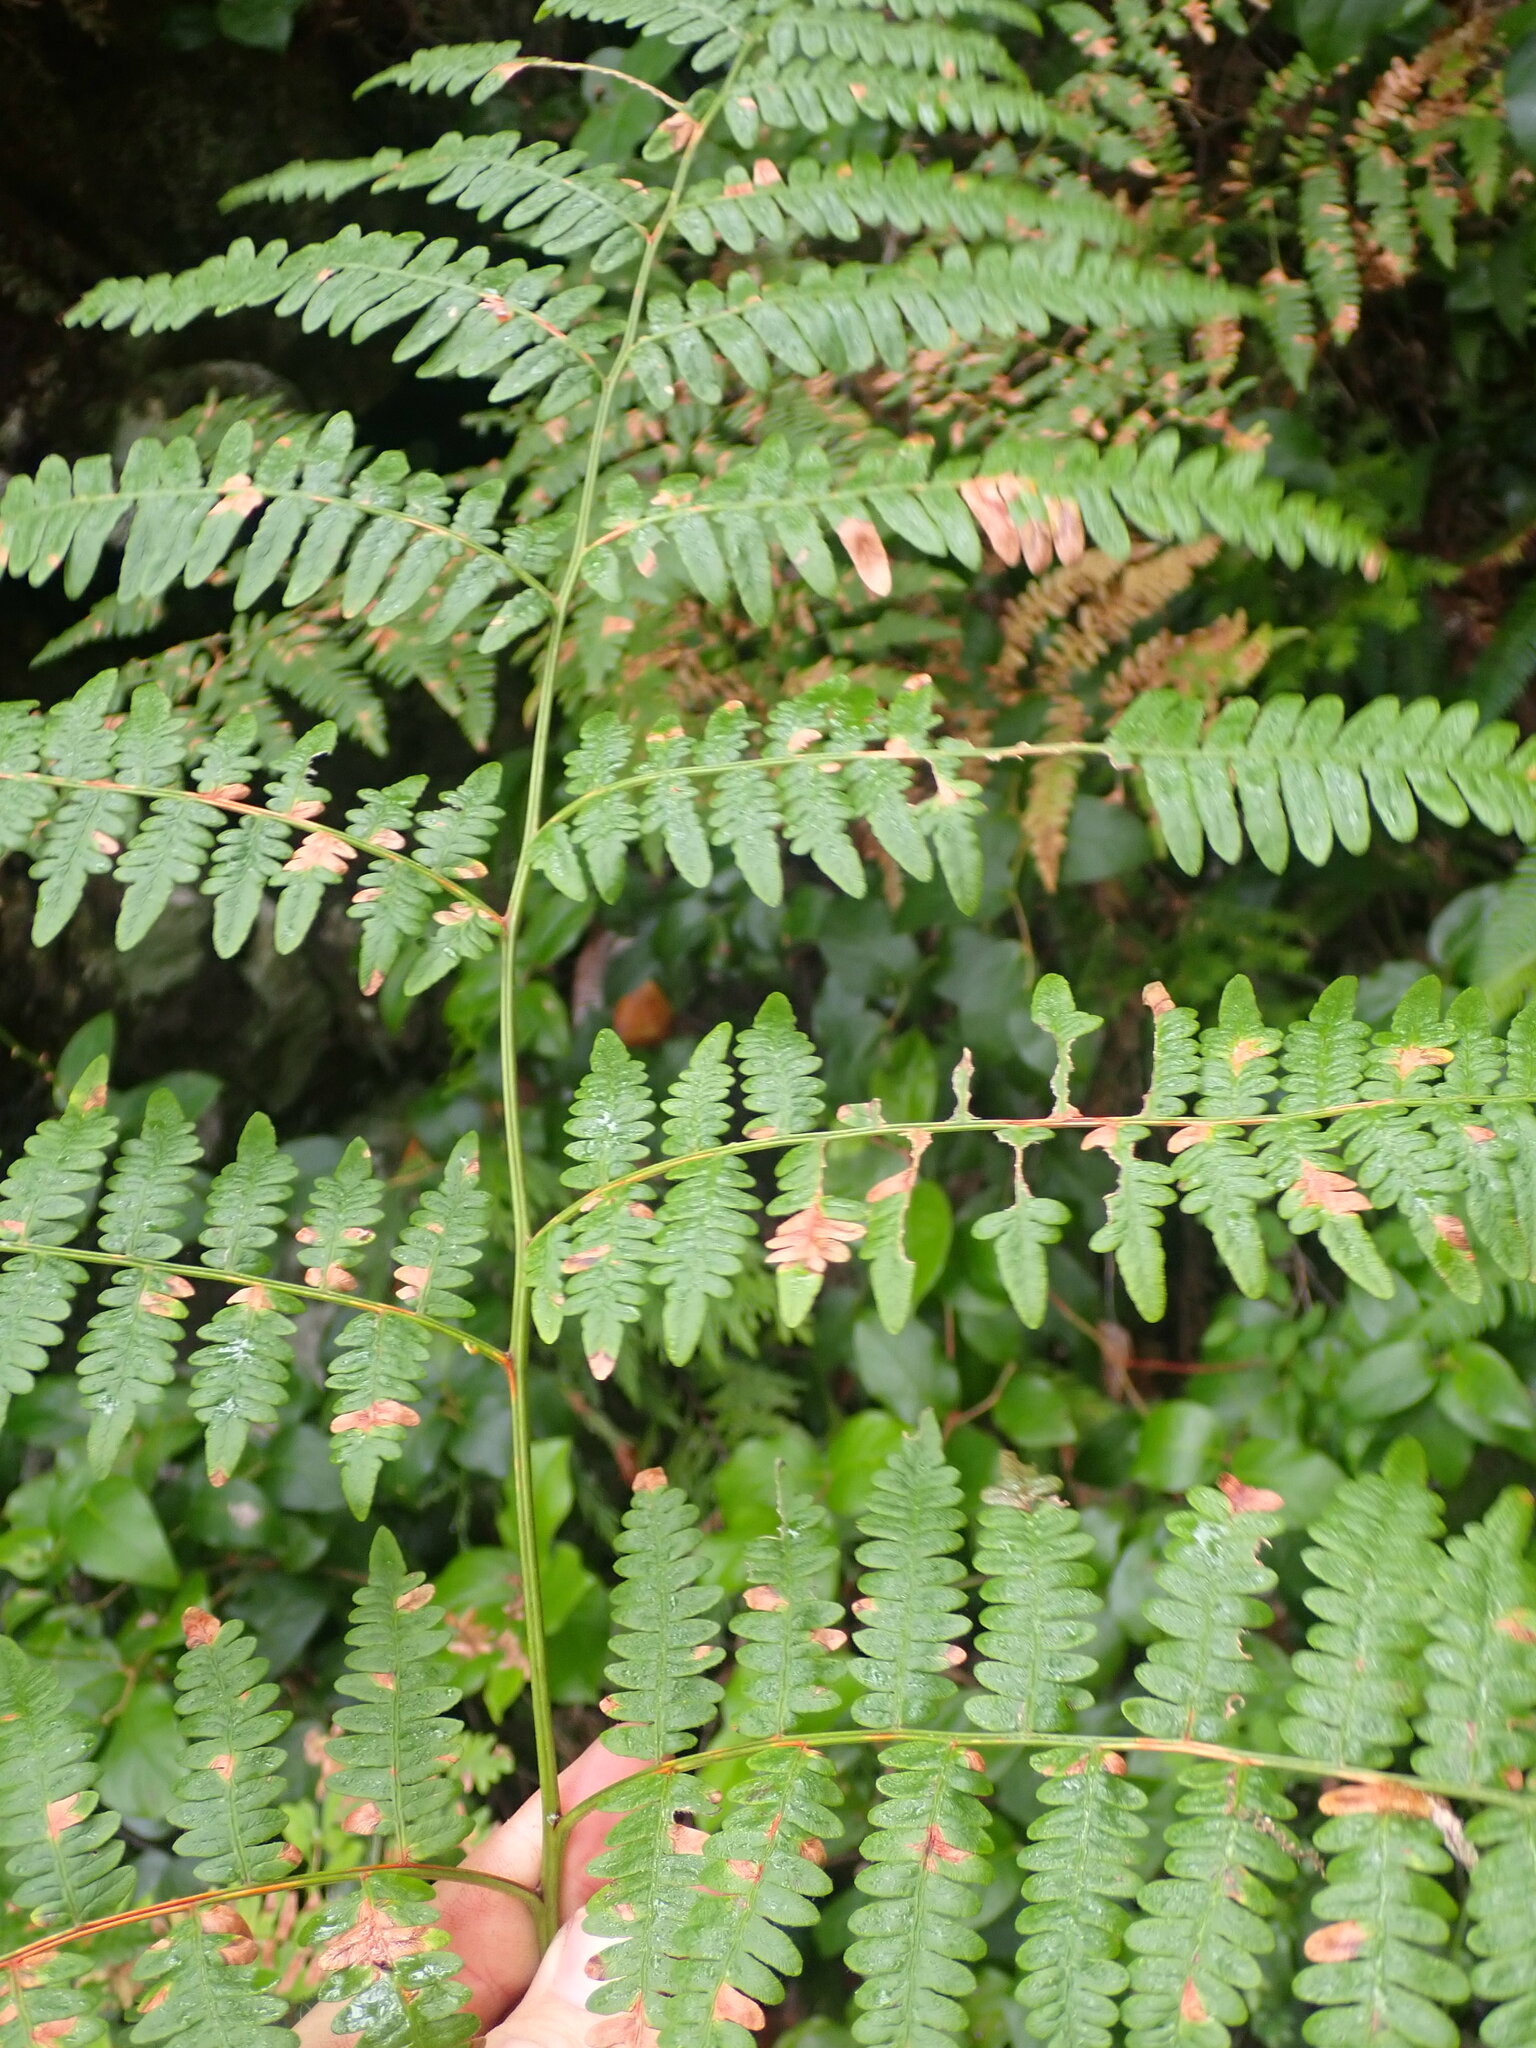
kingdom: Plantae
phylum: Tracheophyta
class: Polypodiopsida
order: Polypodiales
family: Dennstaedtiaceae
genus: Pteridium
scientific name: Pteridium aquilinum
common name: Bracken
